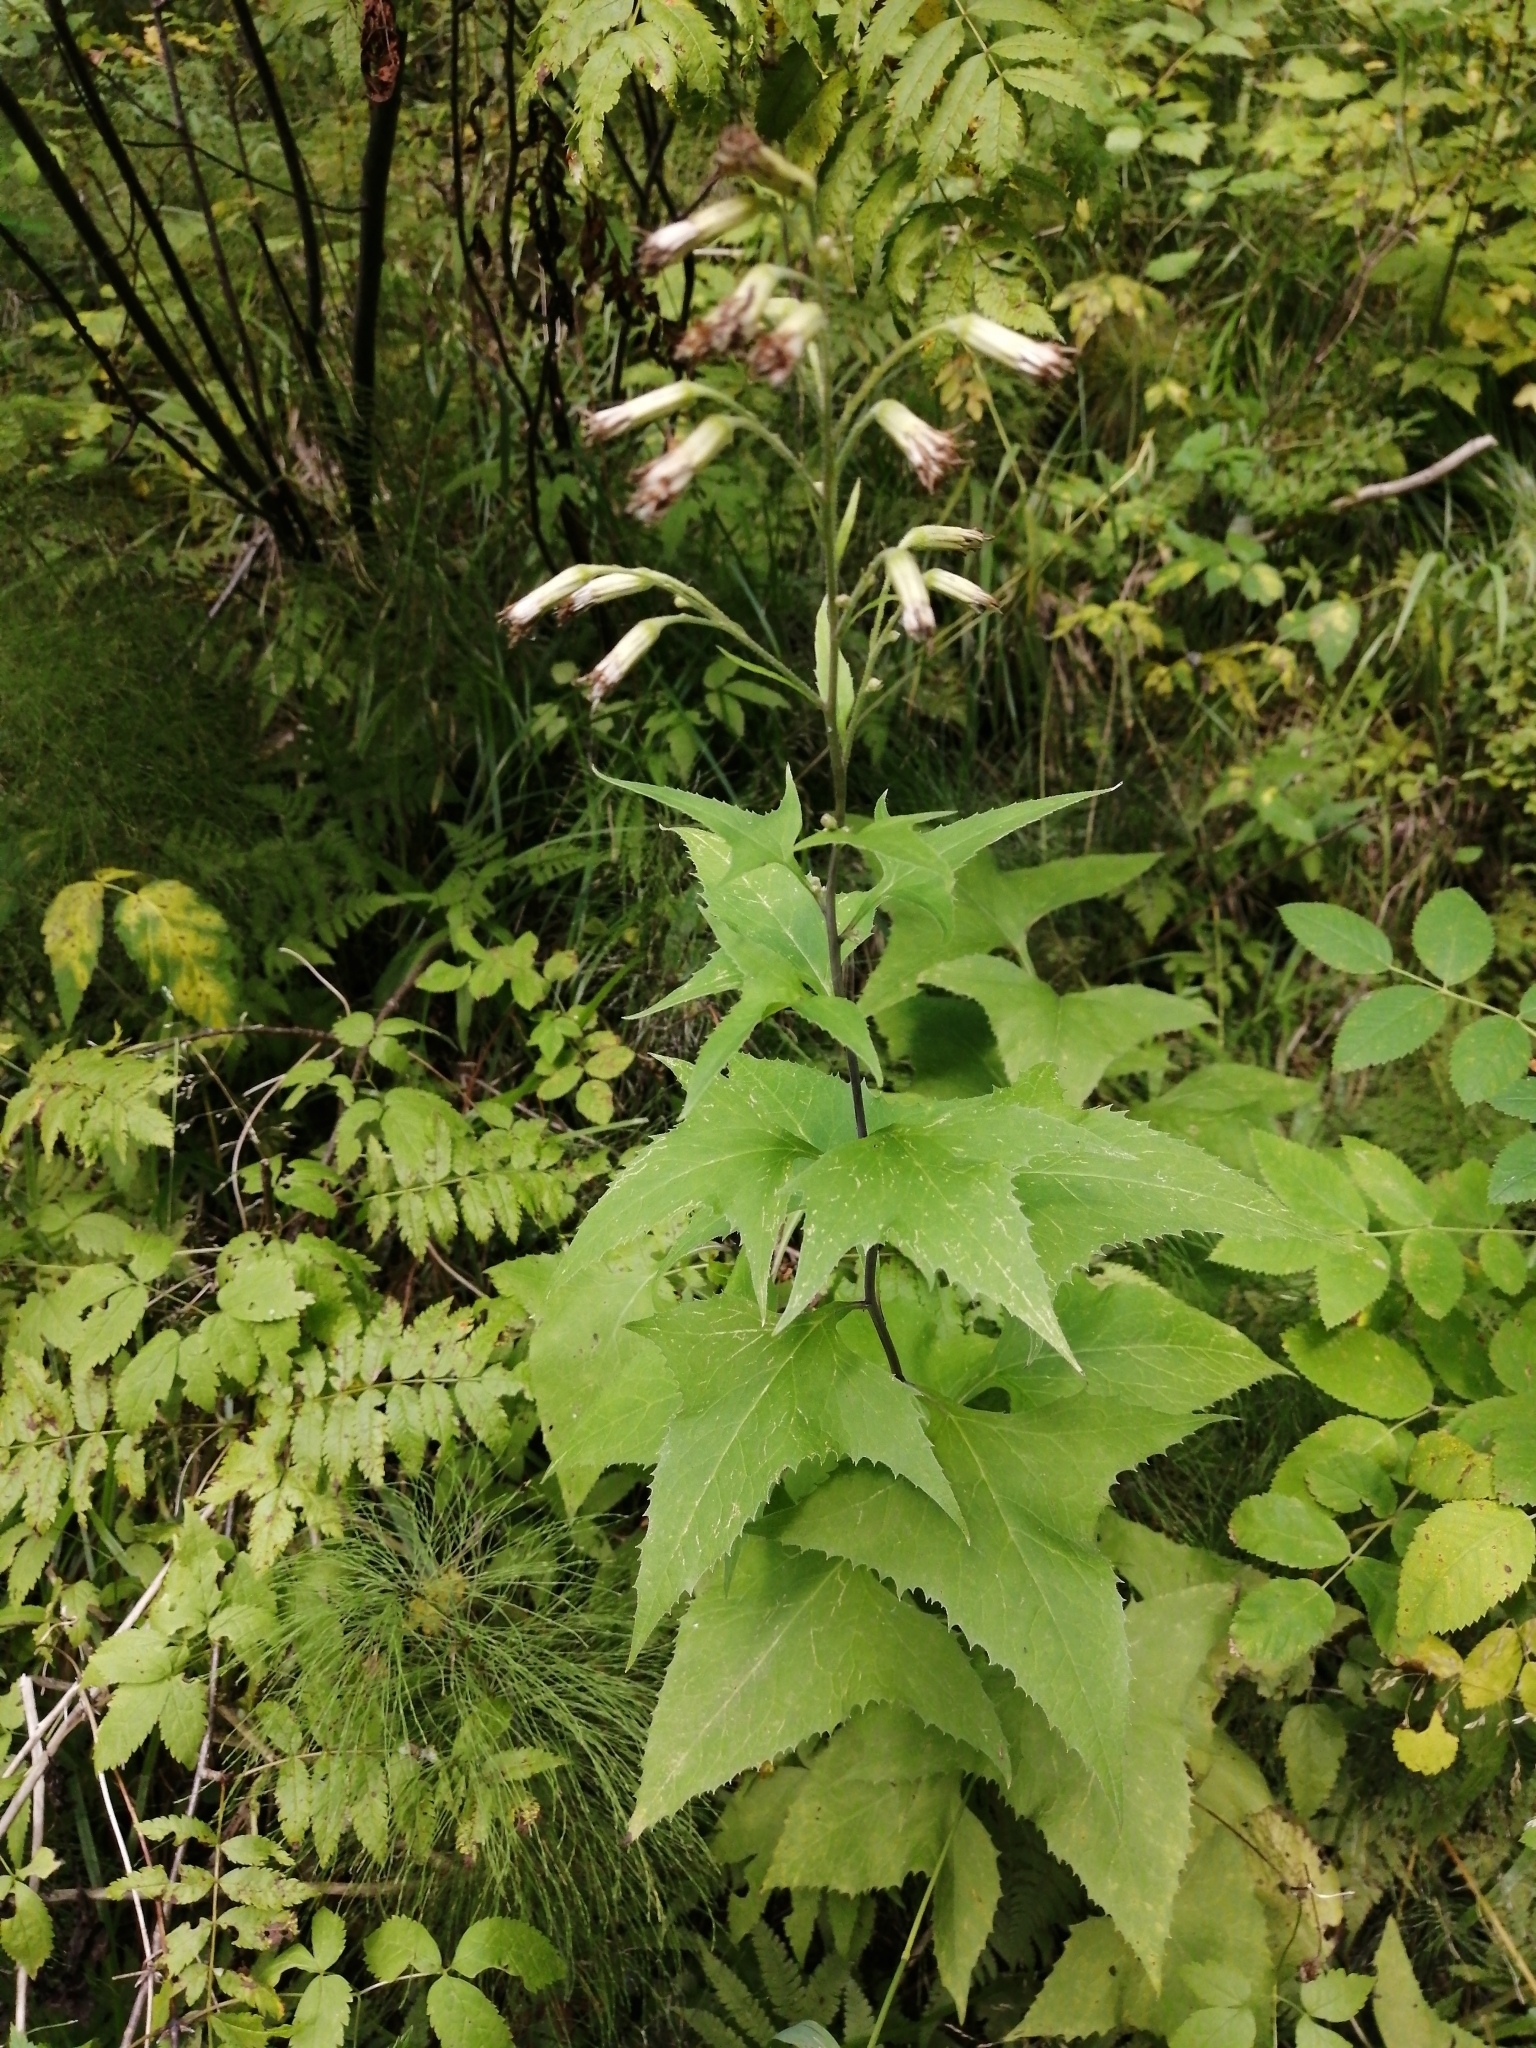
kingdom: Plantae
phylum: Tracheophyta
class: Magnoliopsida
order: Asterales
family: Asteraceae
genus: Parasenecio
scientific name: Parasenecio hastatus
